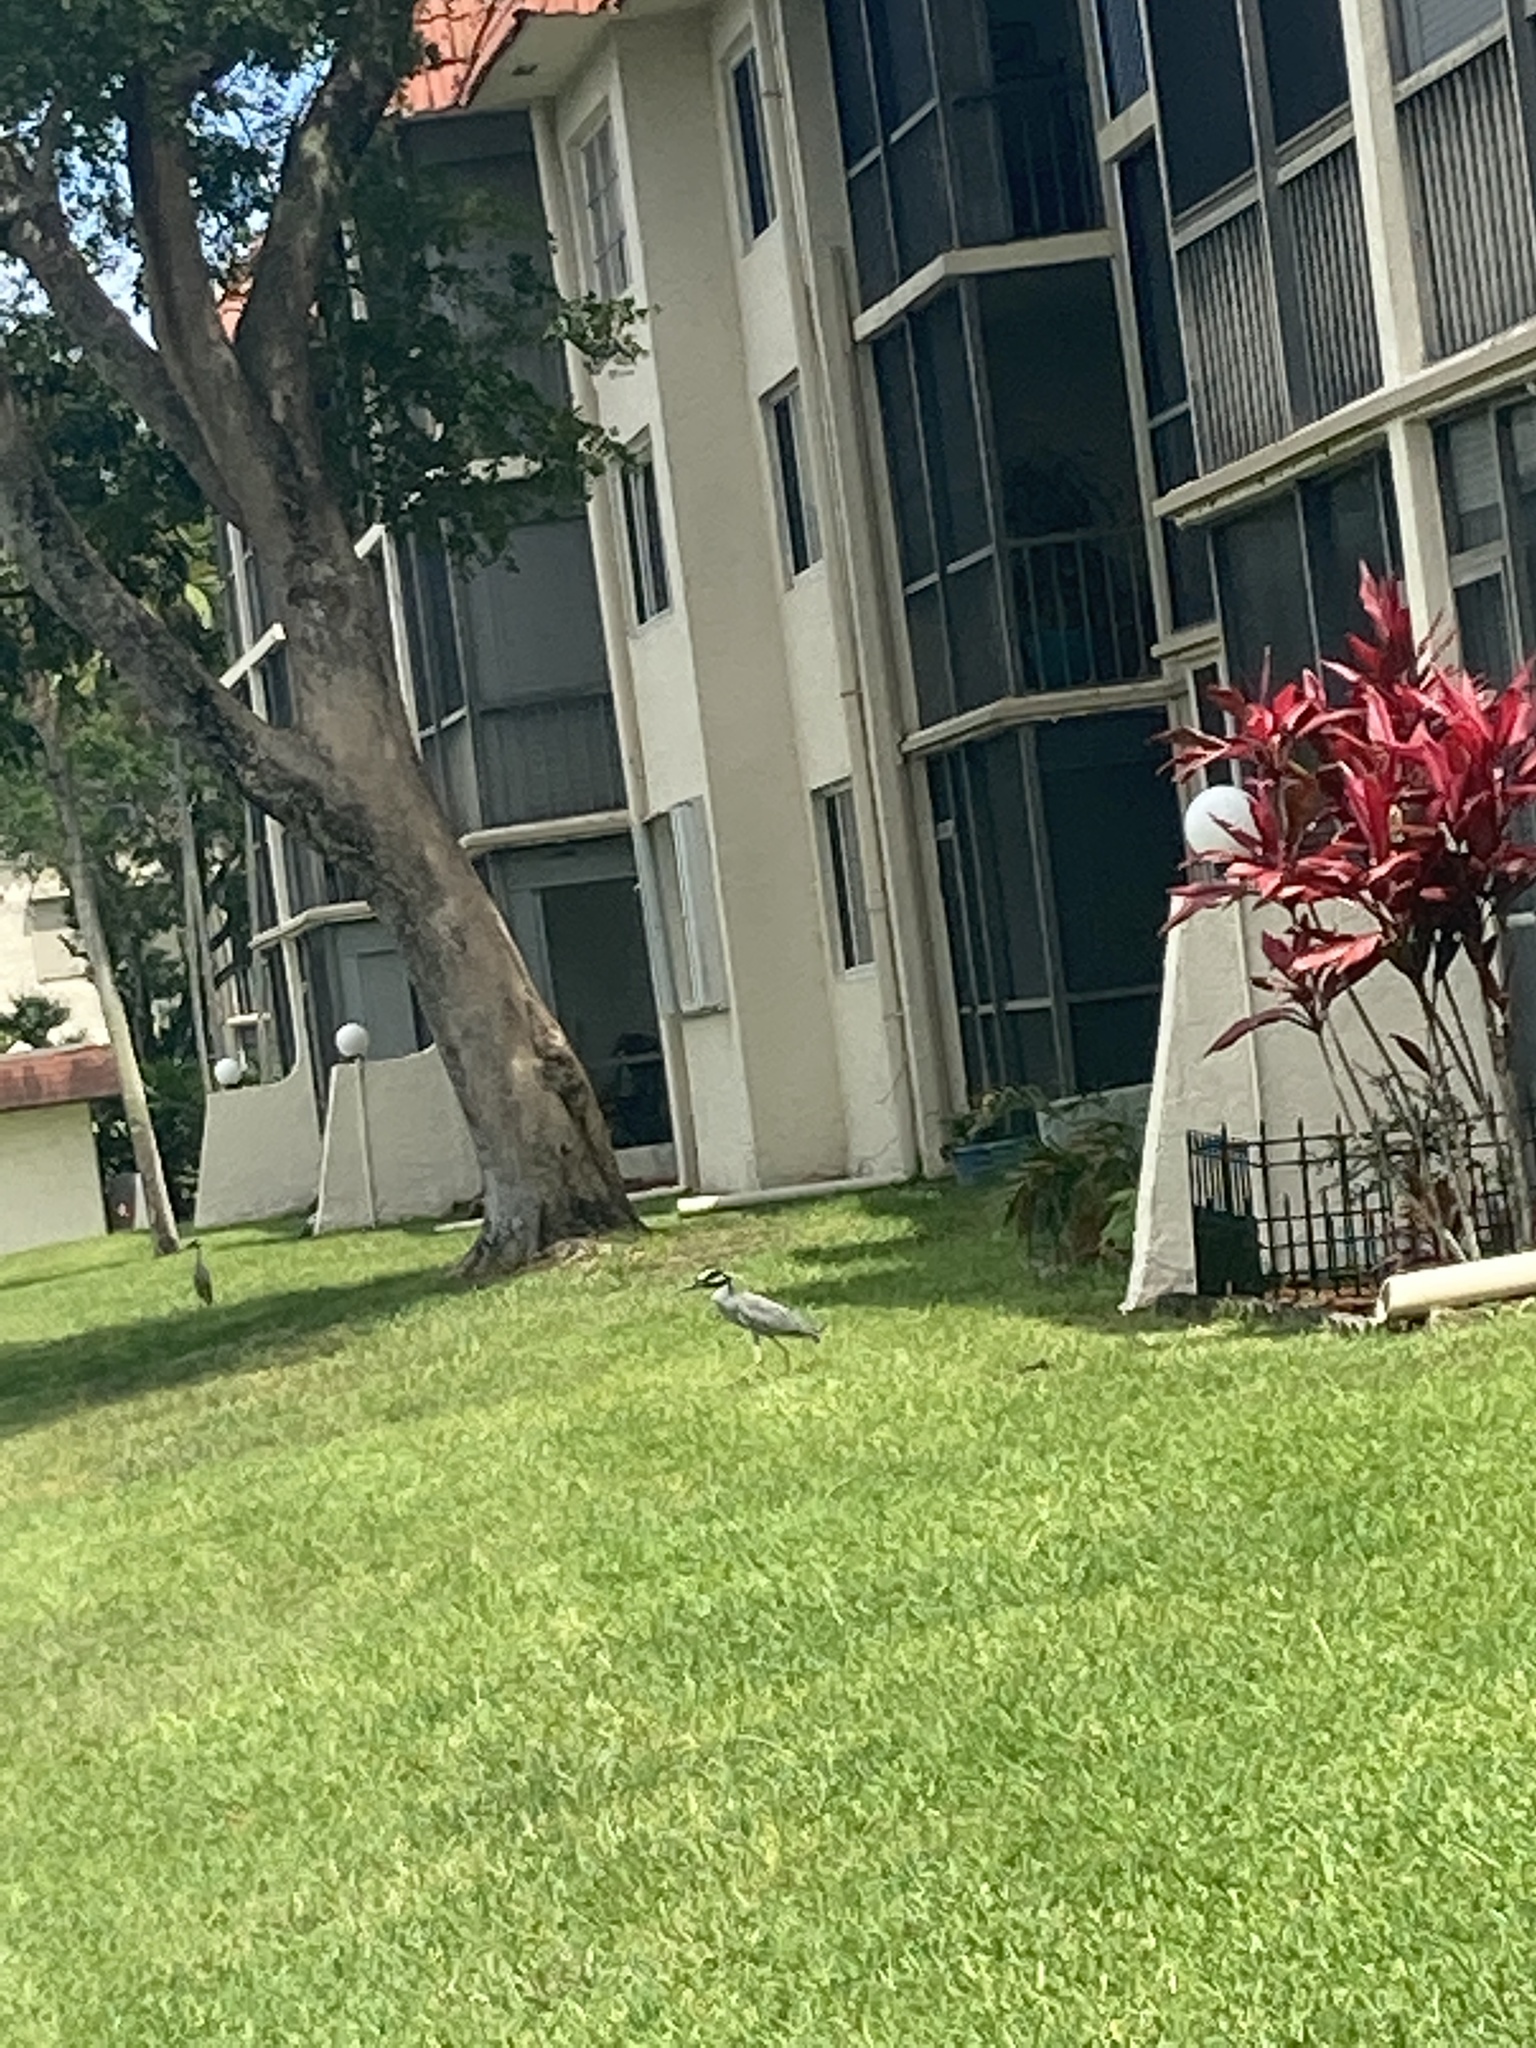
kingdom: Animalia
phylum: Chordata
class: Aves
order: Pelecaniformes
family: Ardeidae
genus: Nyctanassa
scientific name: Nyctanassa violacea
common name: Yellow-crowned night heron
